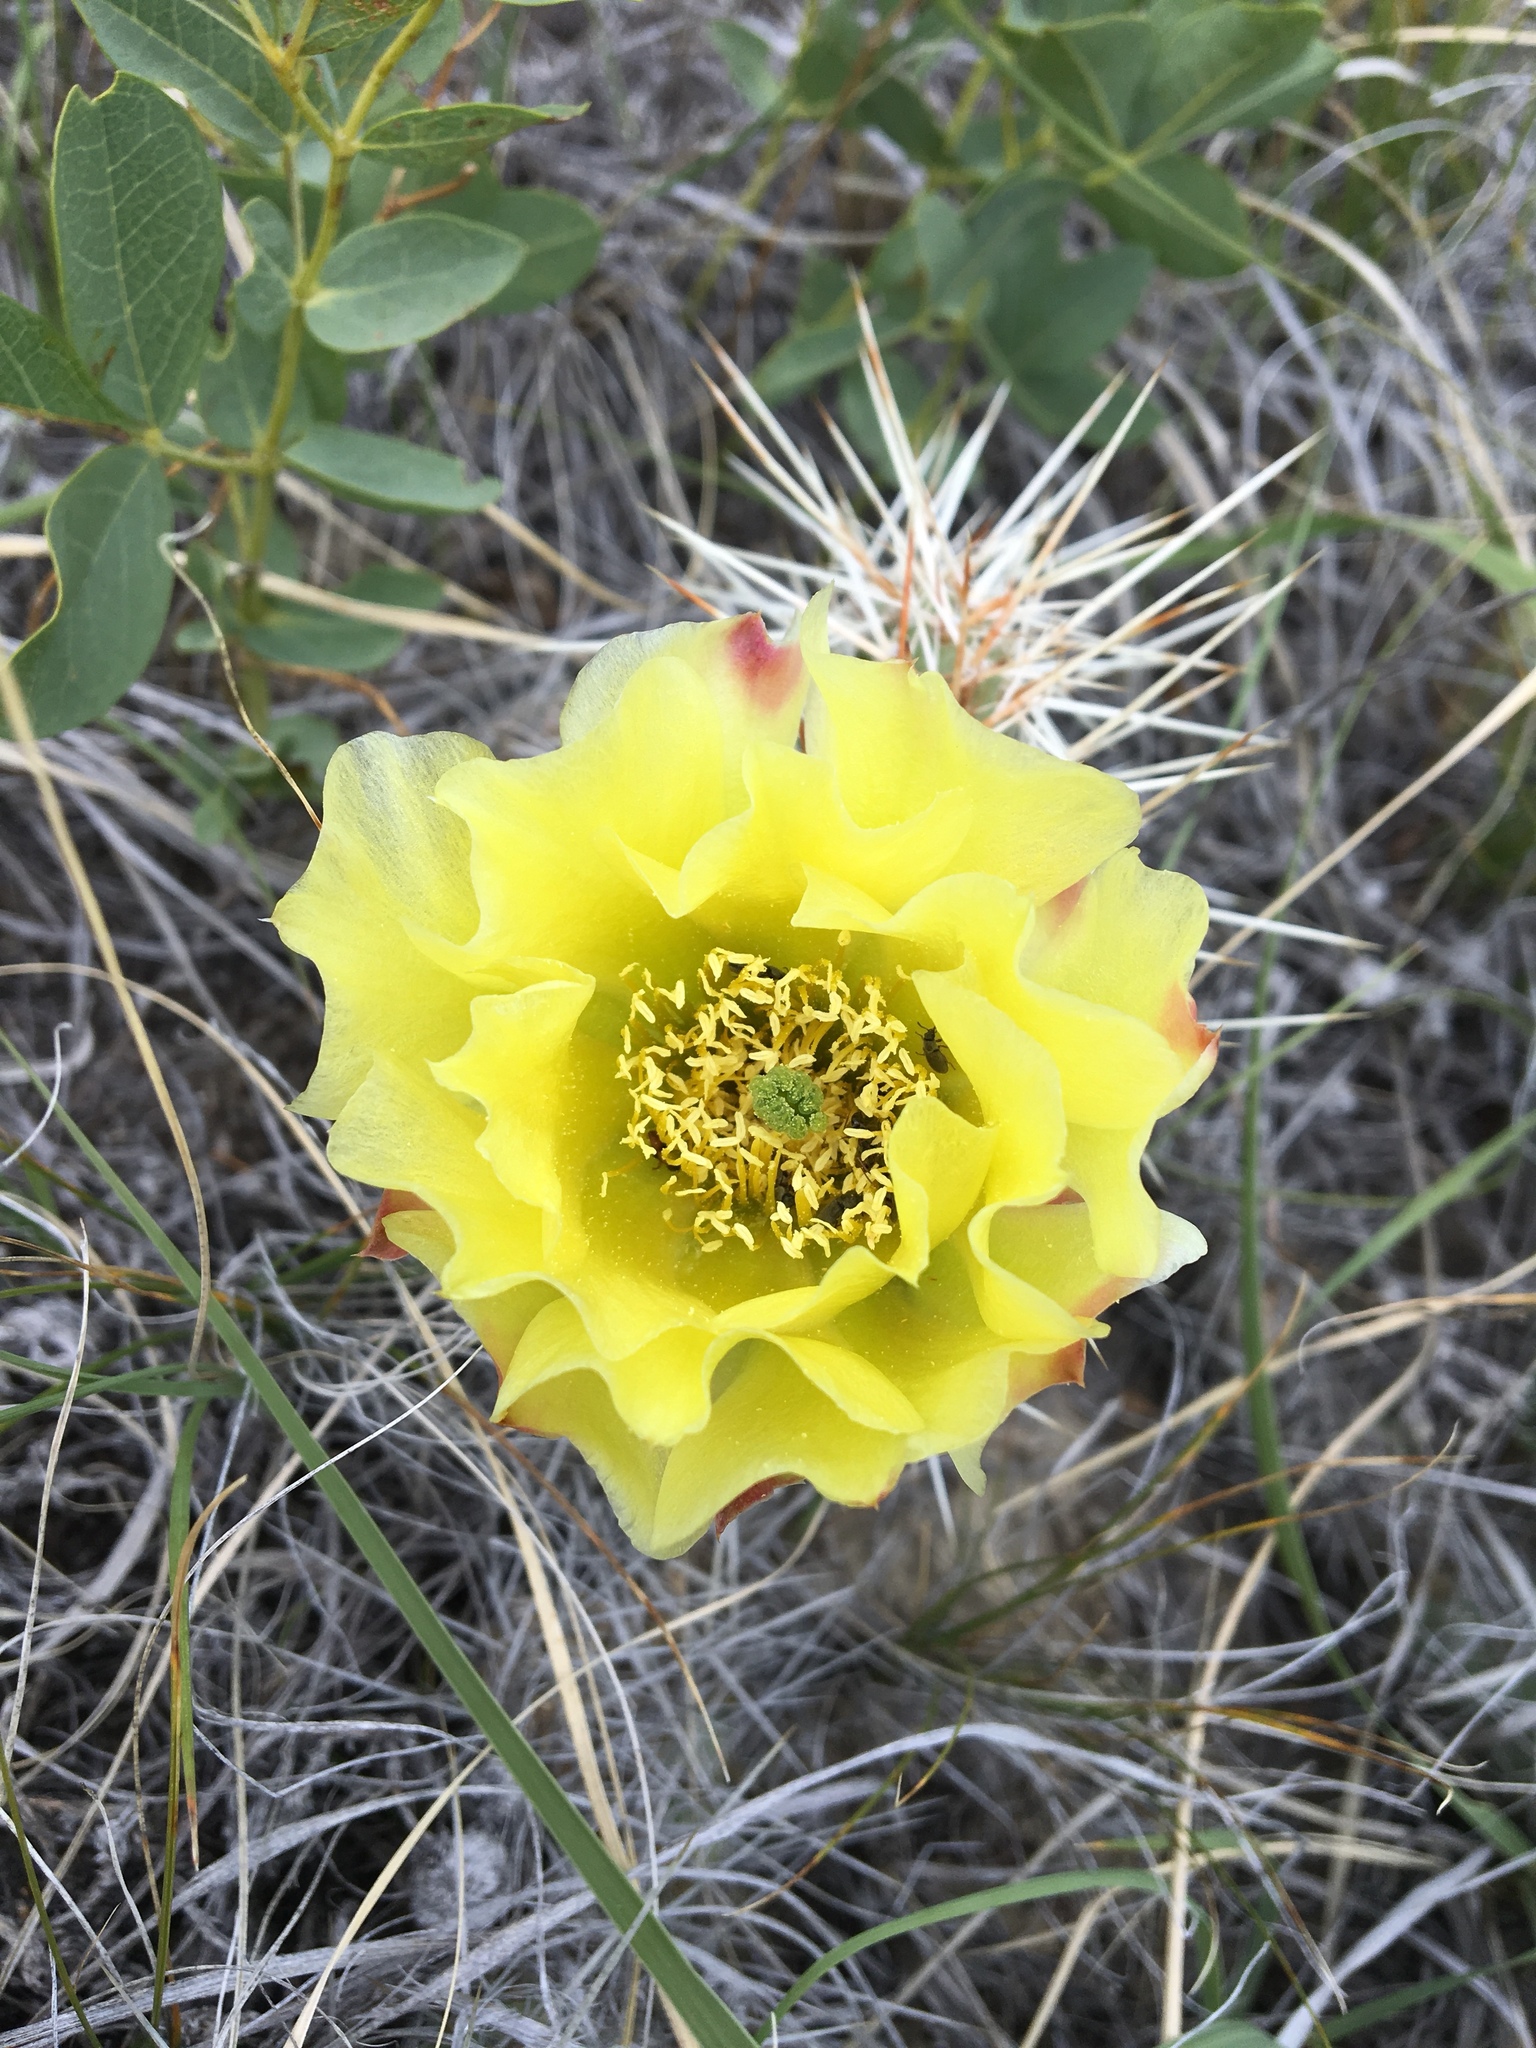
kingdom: Plantae
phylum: Tracheophyta
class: Magnoliopsida
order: Caryophyllales
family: Cactaceae
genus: Opuntia
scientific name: Opuntia polyacantha
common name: Plains prickly-pear
